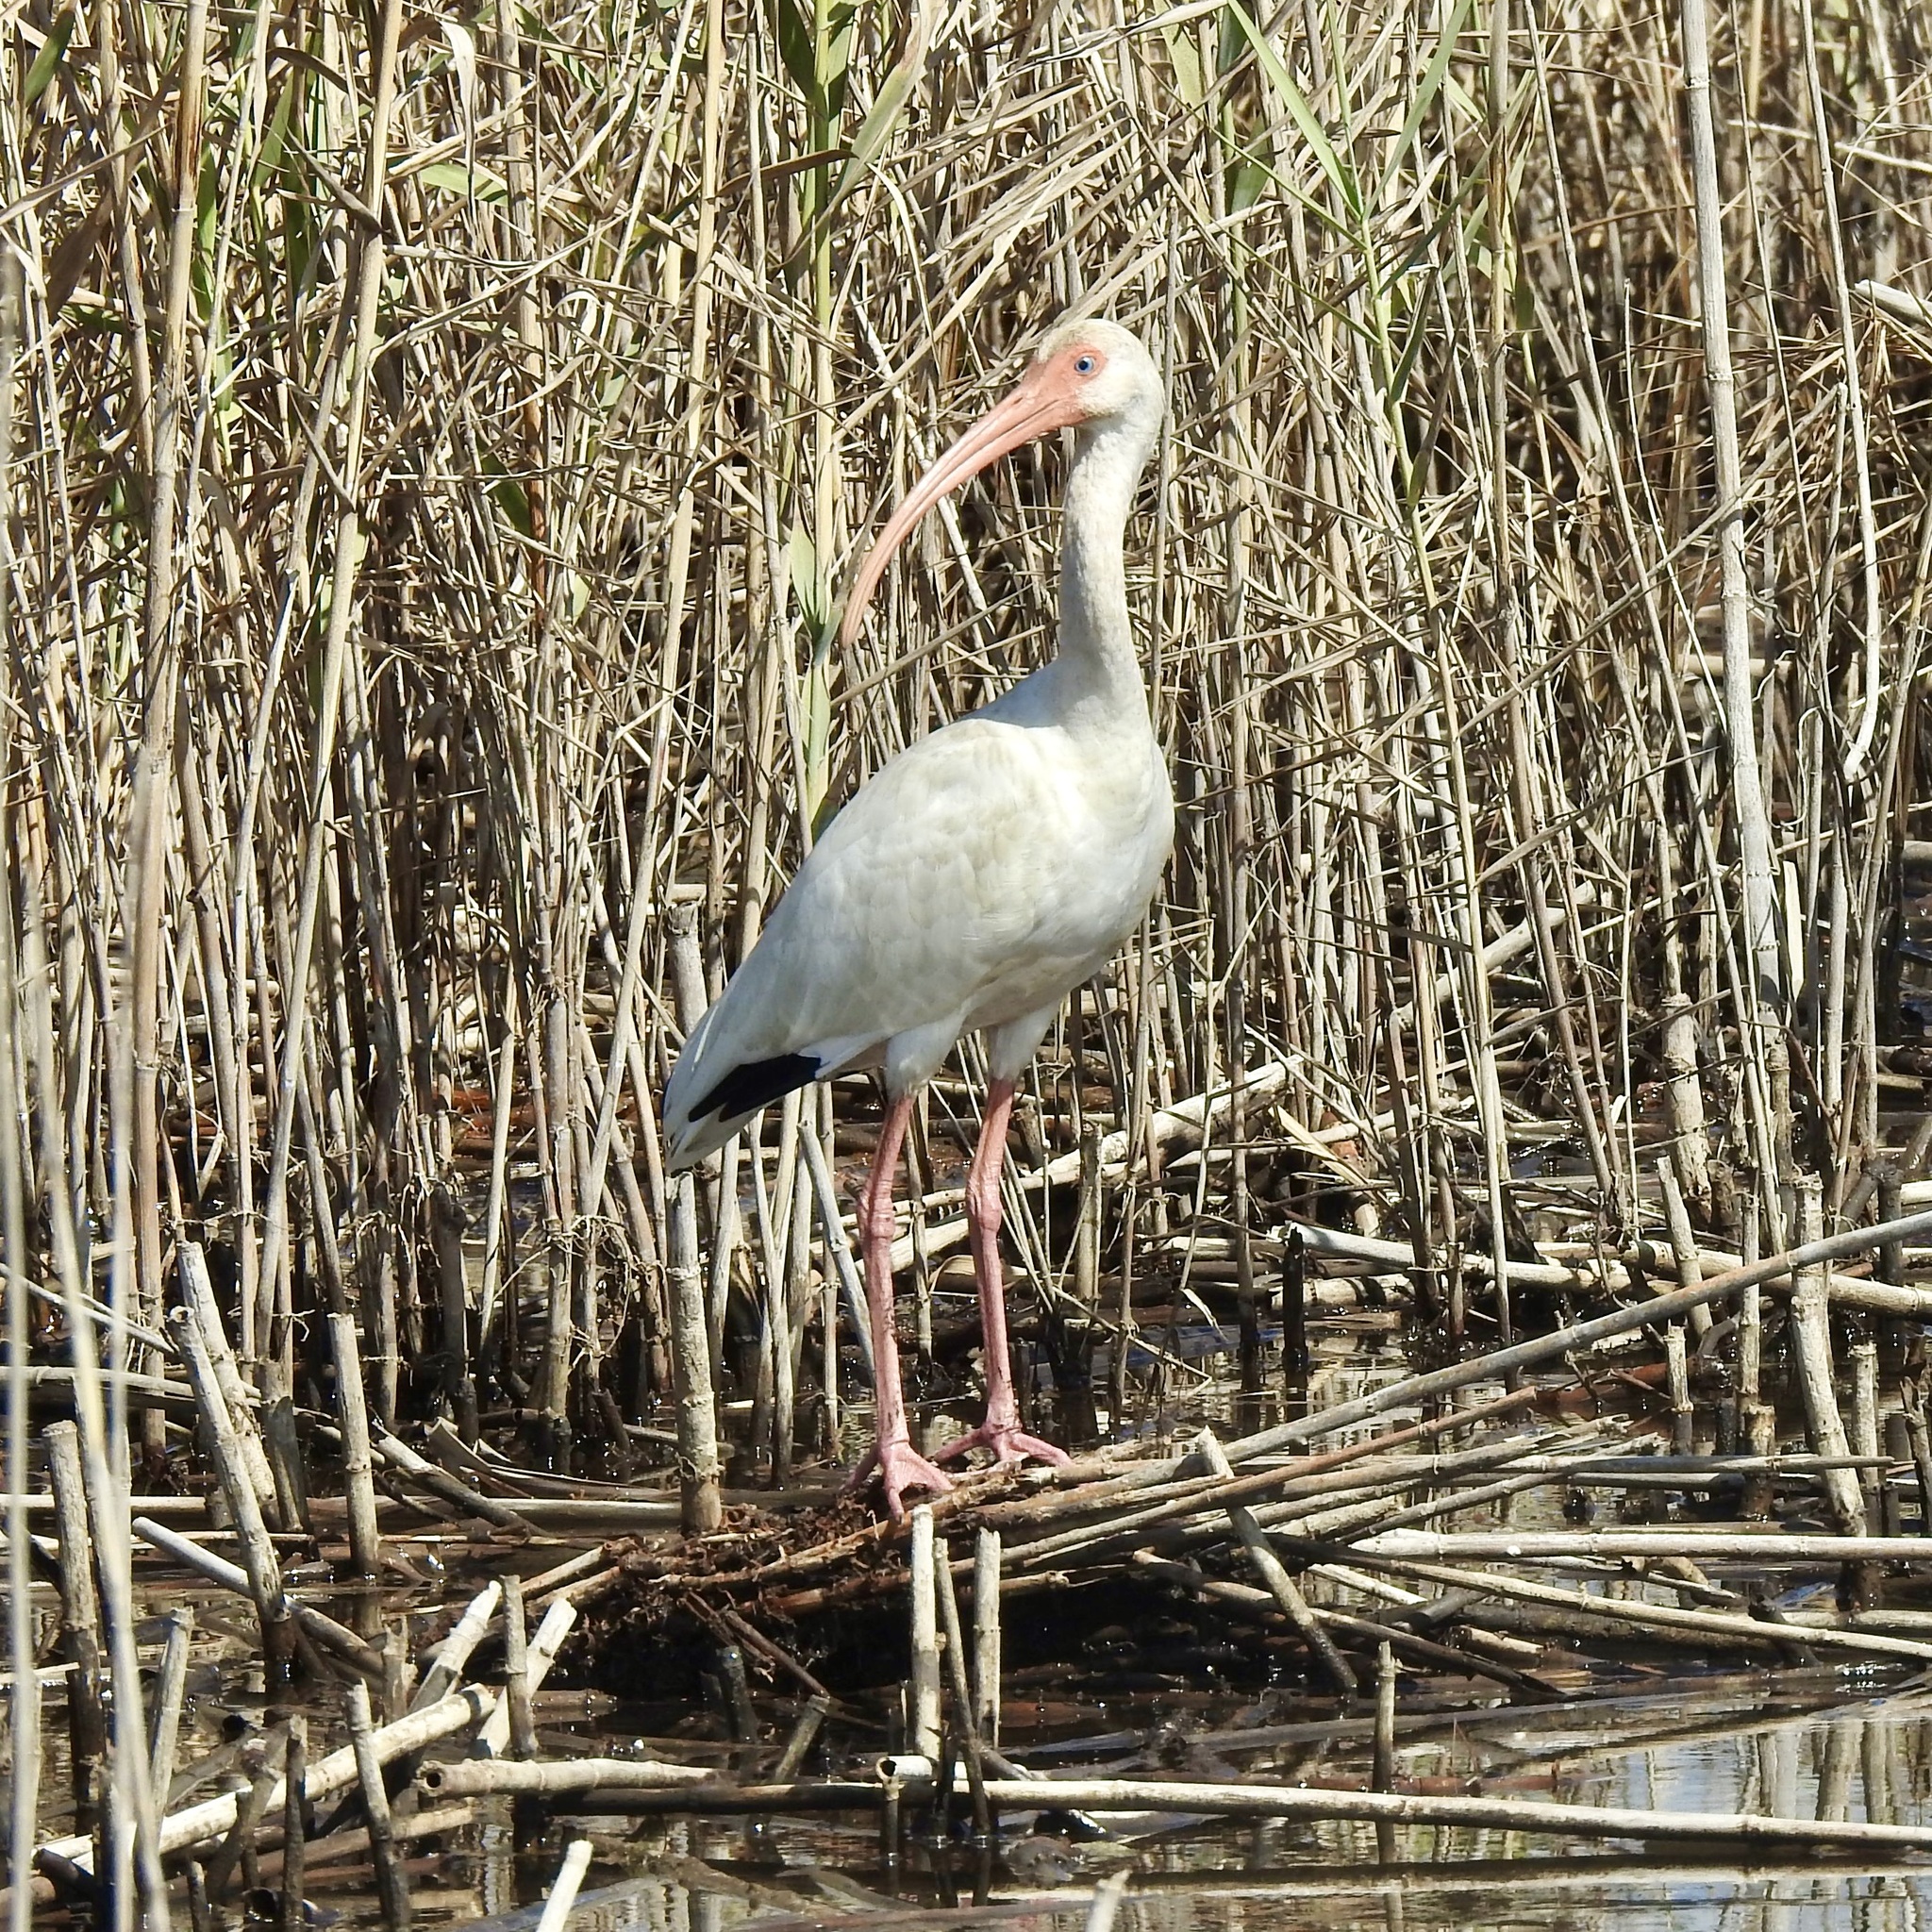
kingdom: Animalia
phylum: Chordata
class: Aves
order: Pelecaniformes
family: Threskiornithidae
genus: Eudocimus
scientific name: Eudocimus albus
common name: White ibis
